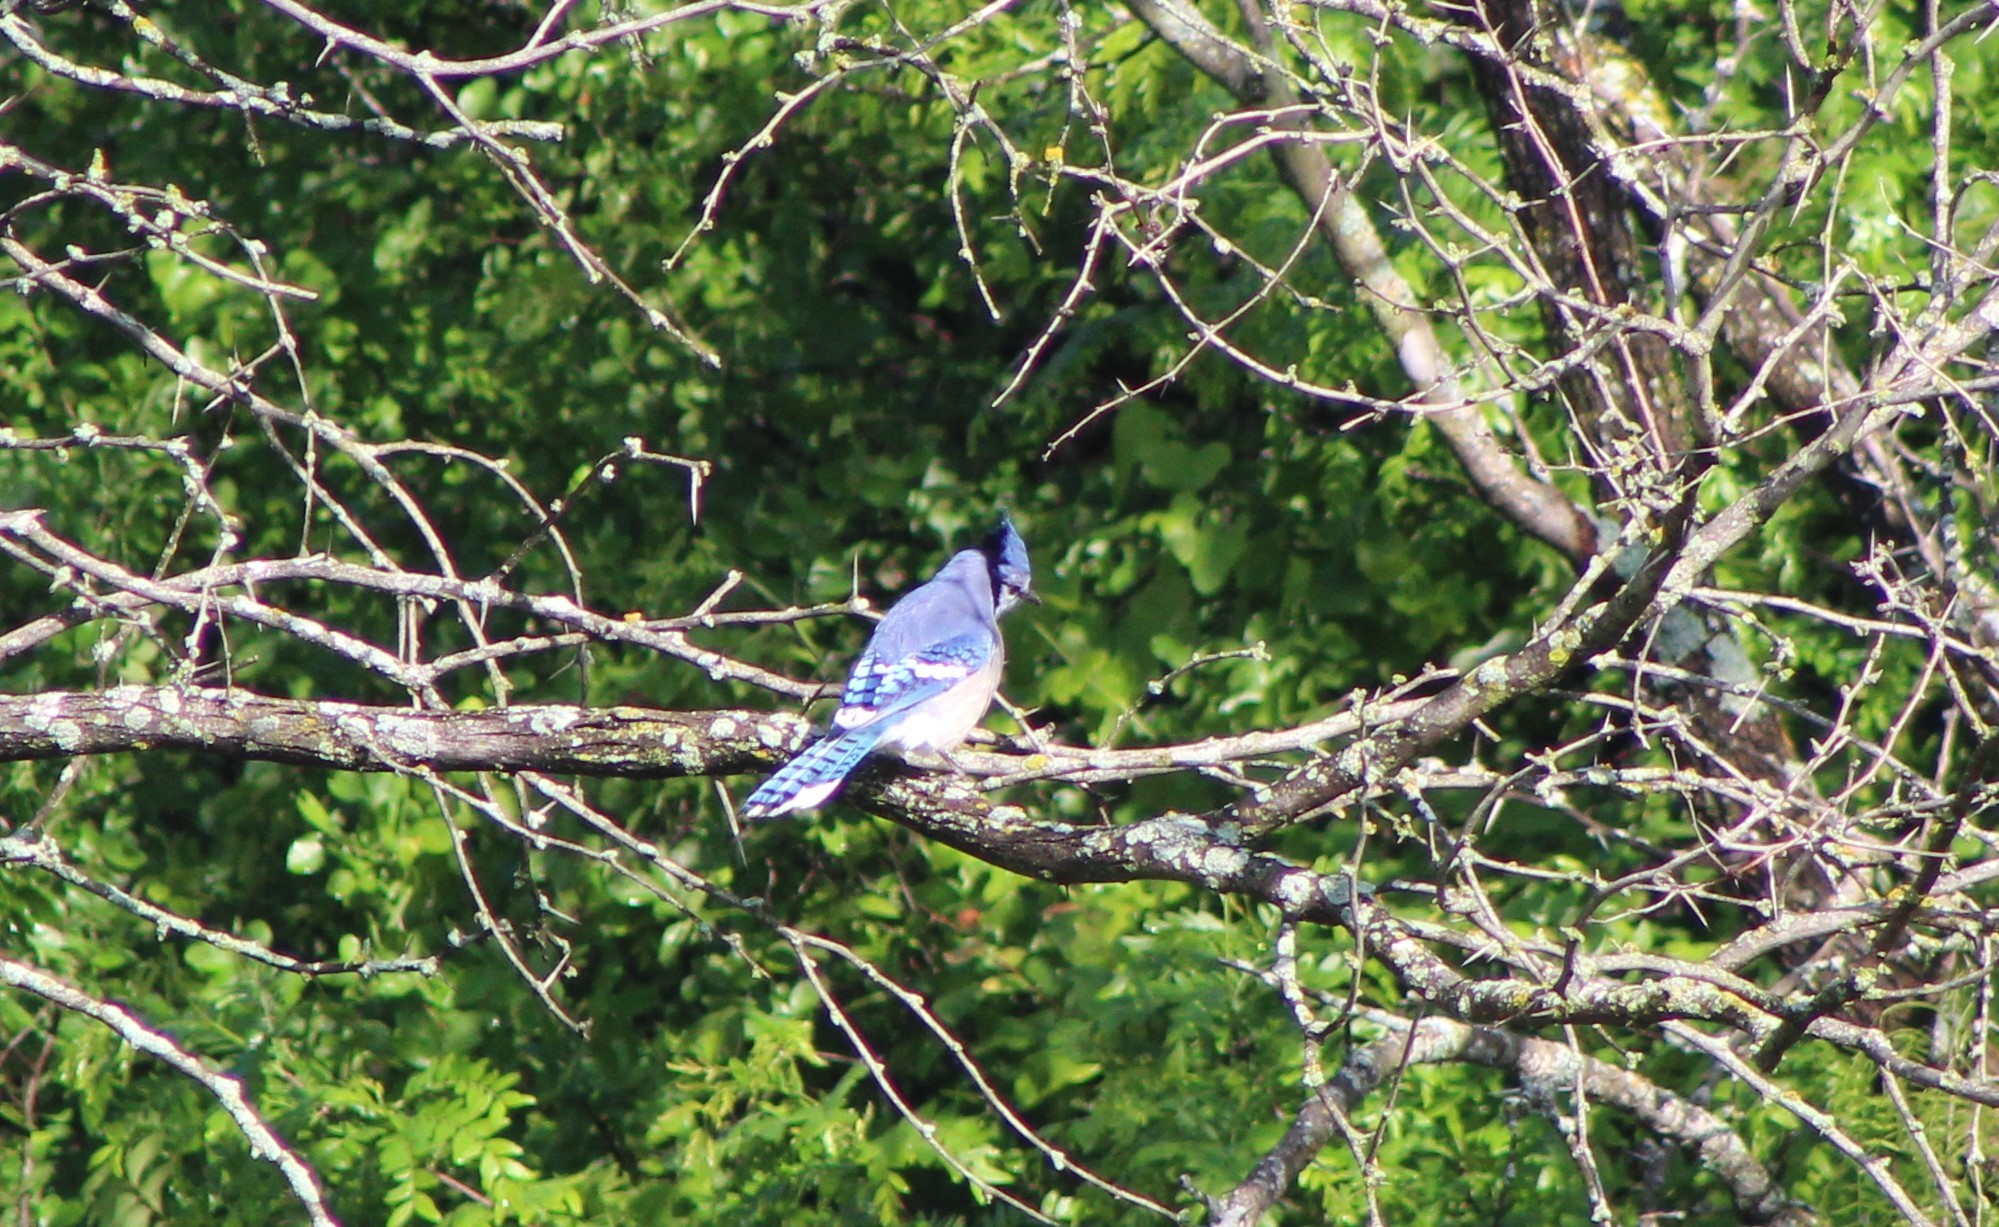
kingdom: Animalia
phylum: Chordata
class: Aves
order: Passeriformes
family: Corvidae
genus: Cyanocitta
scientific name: Cyanocitta cristata
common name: Blue jay
